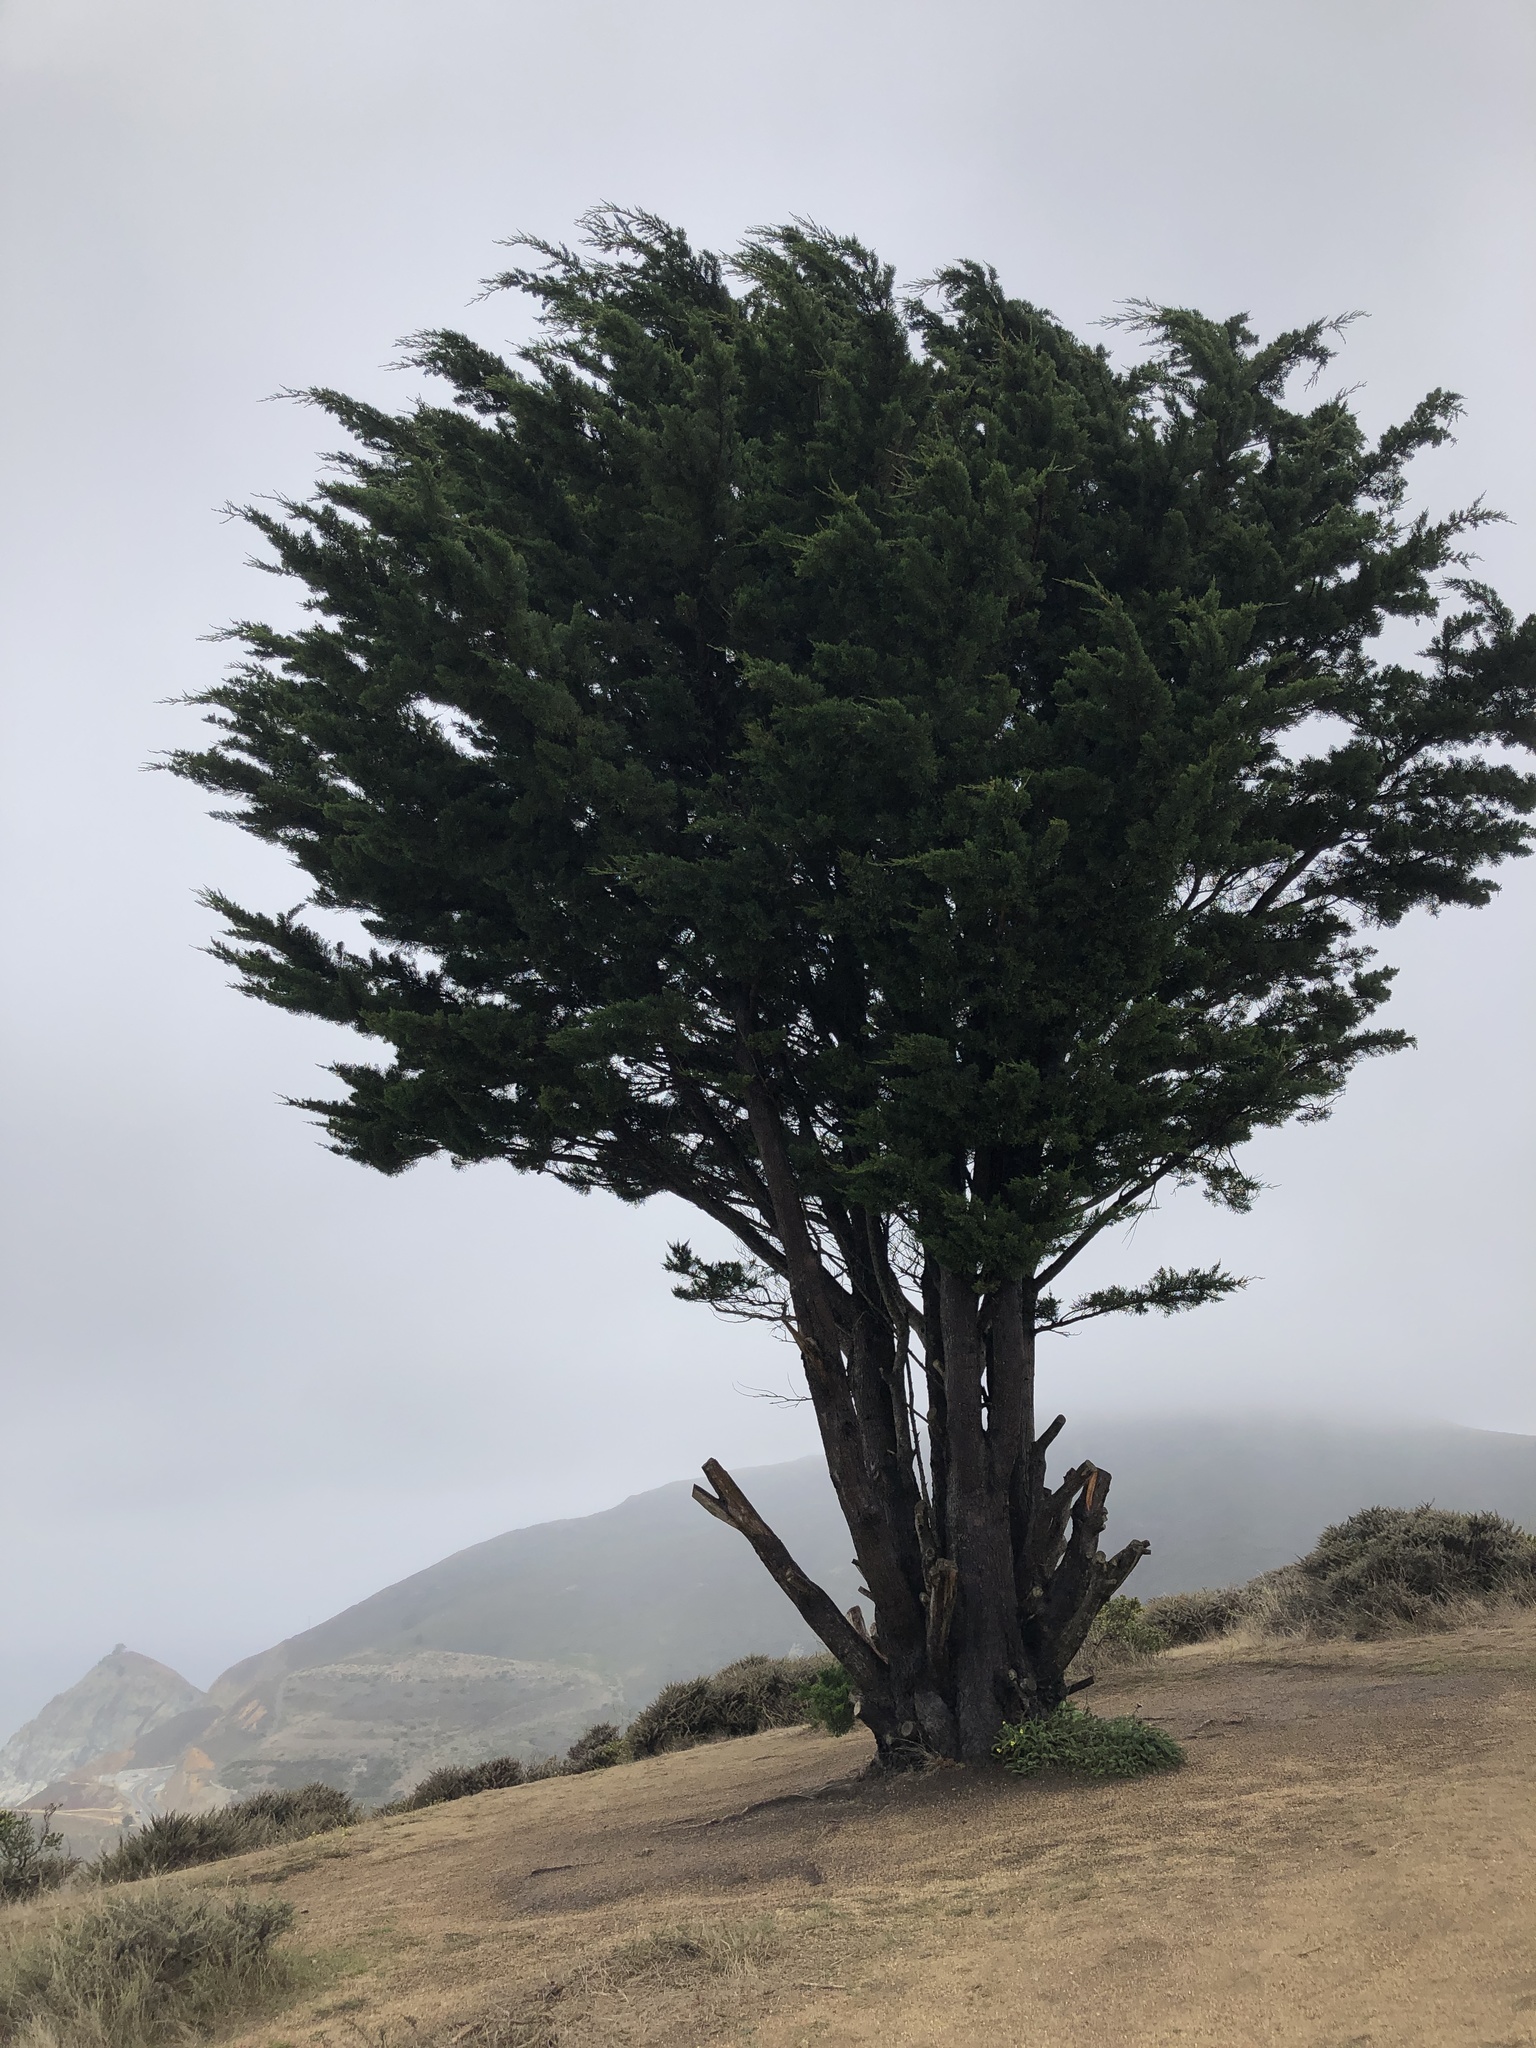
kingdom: Plantae
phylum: Tracheophyta
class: Pinopsida
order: Pinales
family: Cupressaceae
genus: Cupressus
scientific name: Cupressus macrocarpa
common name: Monterey cypress
